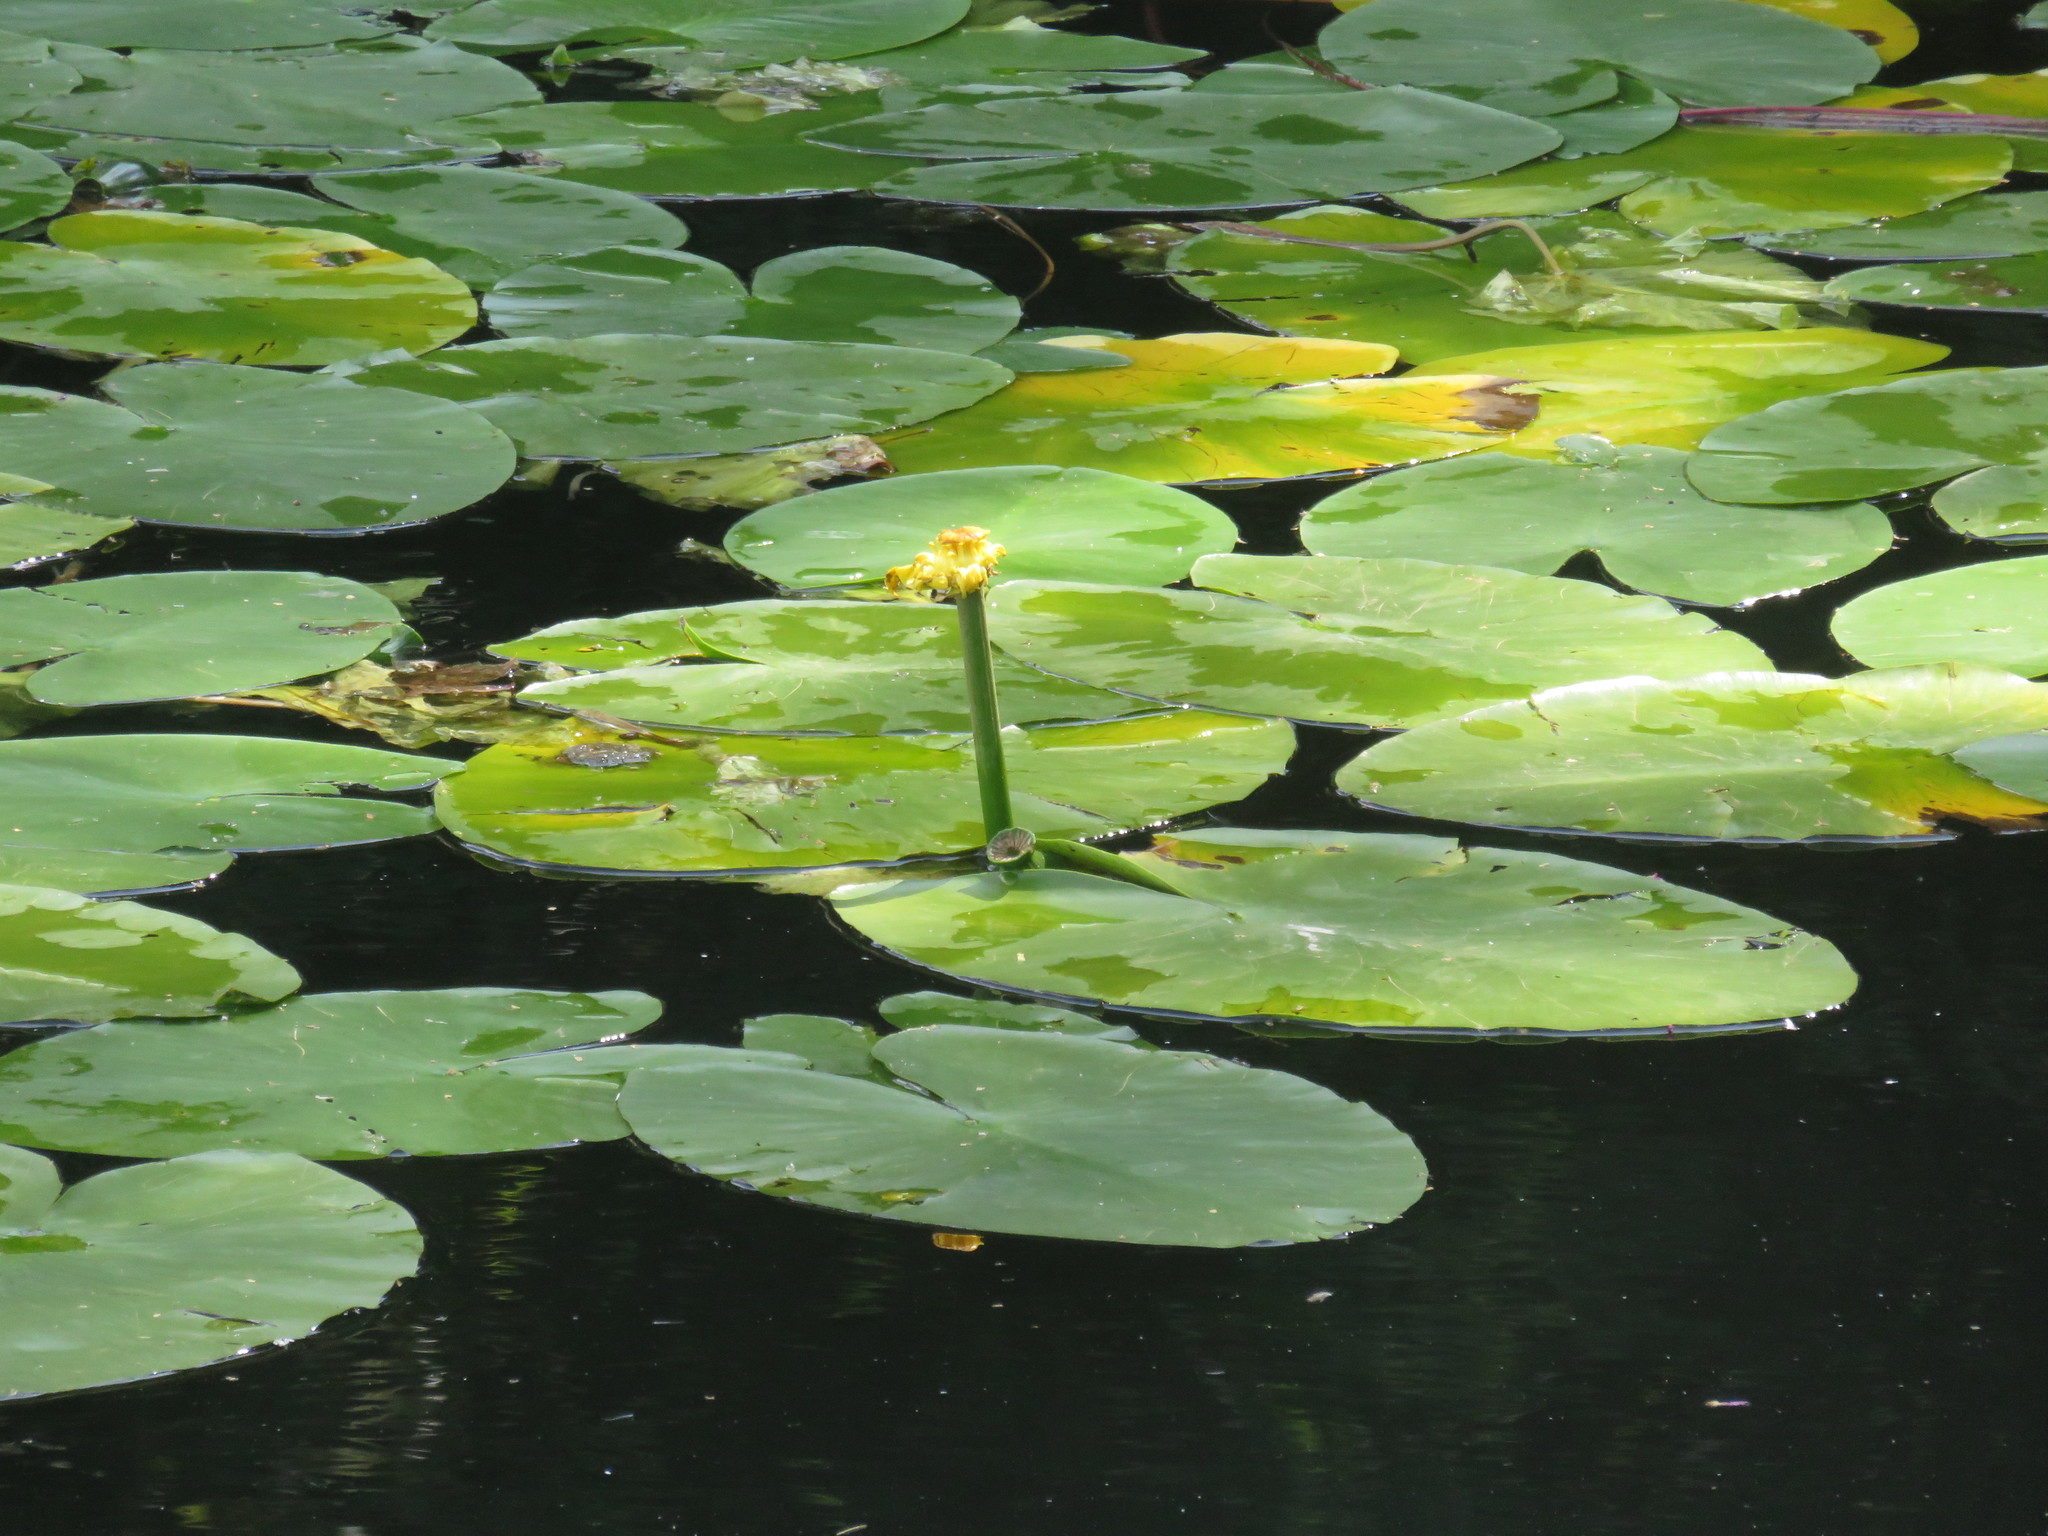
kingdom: Plantae
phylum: Tracheophyta
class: Magnoliopsida
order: Nymphaeales
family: Nymphaeaceae
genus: Nuphar
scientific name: Nuphar lutea
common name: Yellow water-lily
